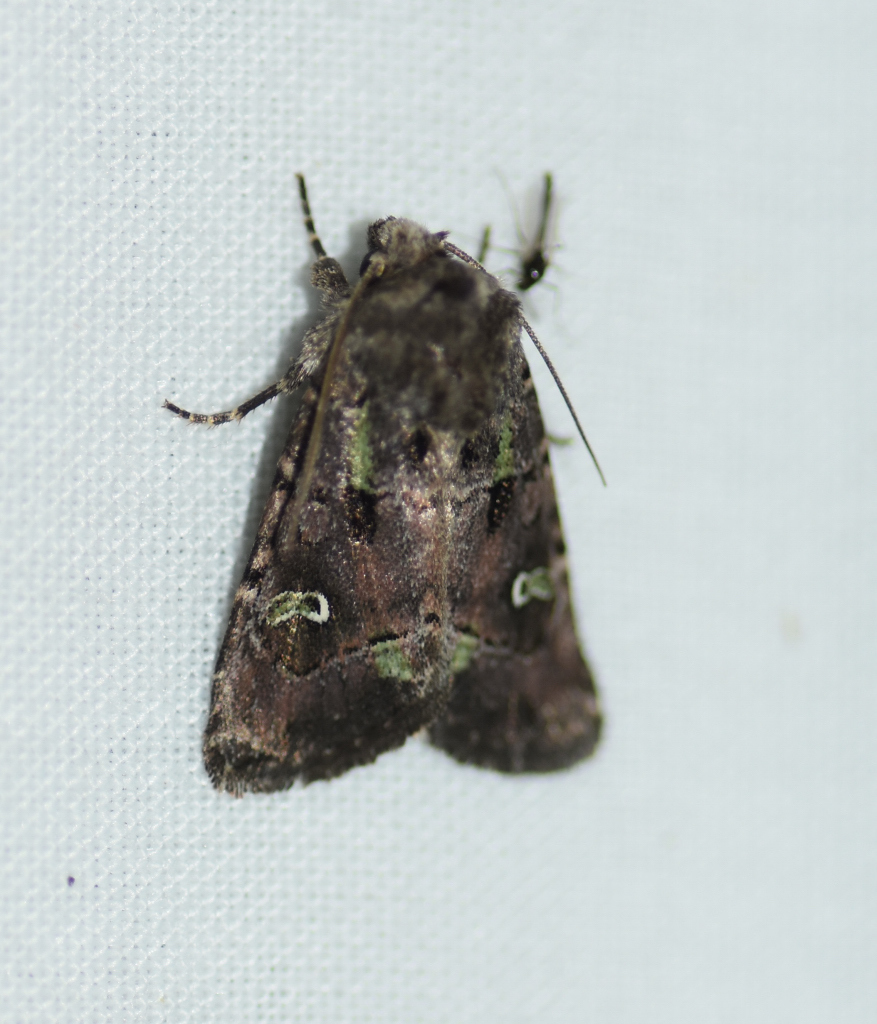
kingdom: Animalia
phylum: Arthropoda
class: Insecta
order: Lepidoptera
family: Noctuidae
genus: Lacinipolia
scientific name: Lacinipolia renigera
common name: Kidney-spotted minor
